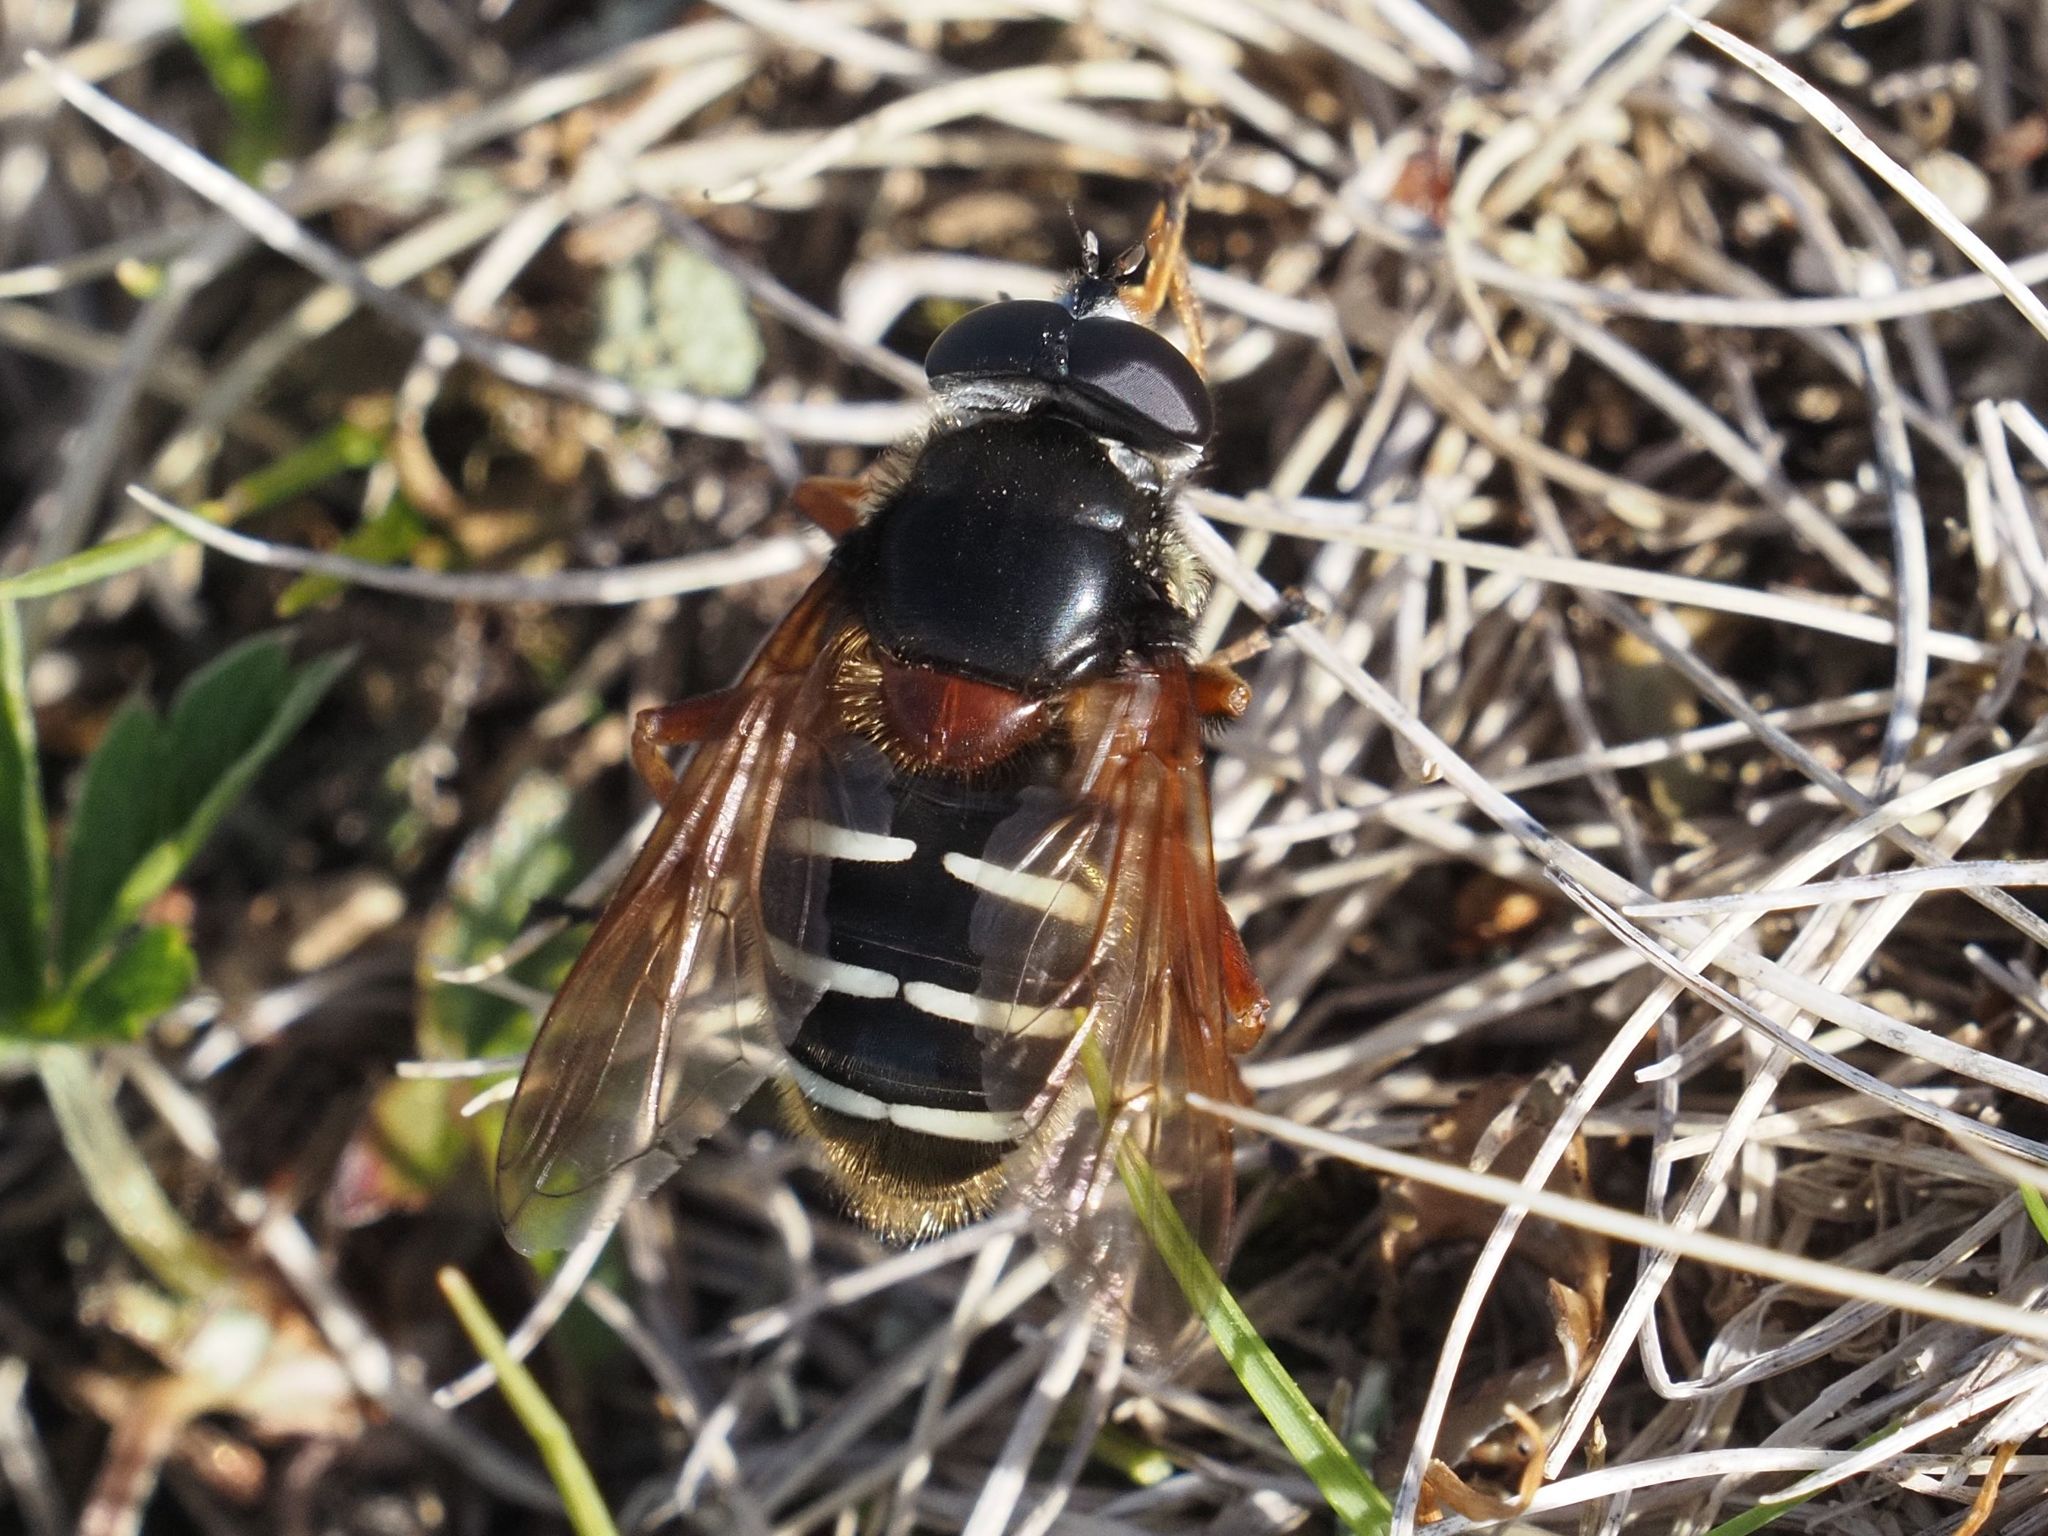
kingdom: Animalia
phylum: Arthropoda
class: Insecta
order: Diptera
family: Syrphidae
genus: Sericomyia
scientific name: Sericomyia lappona
